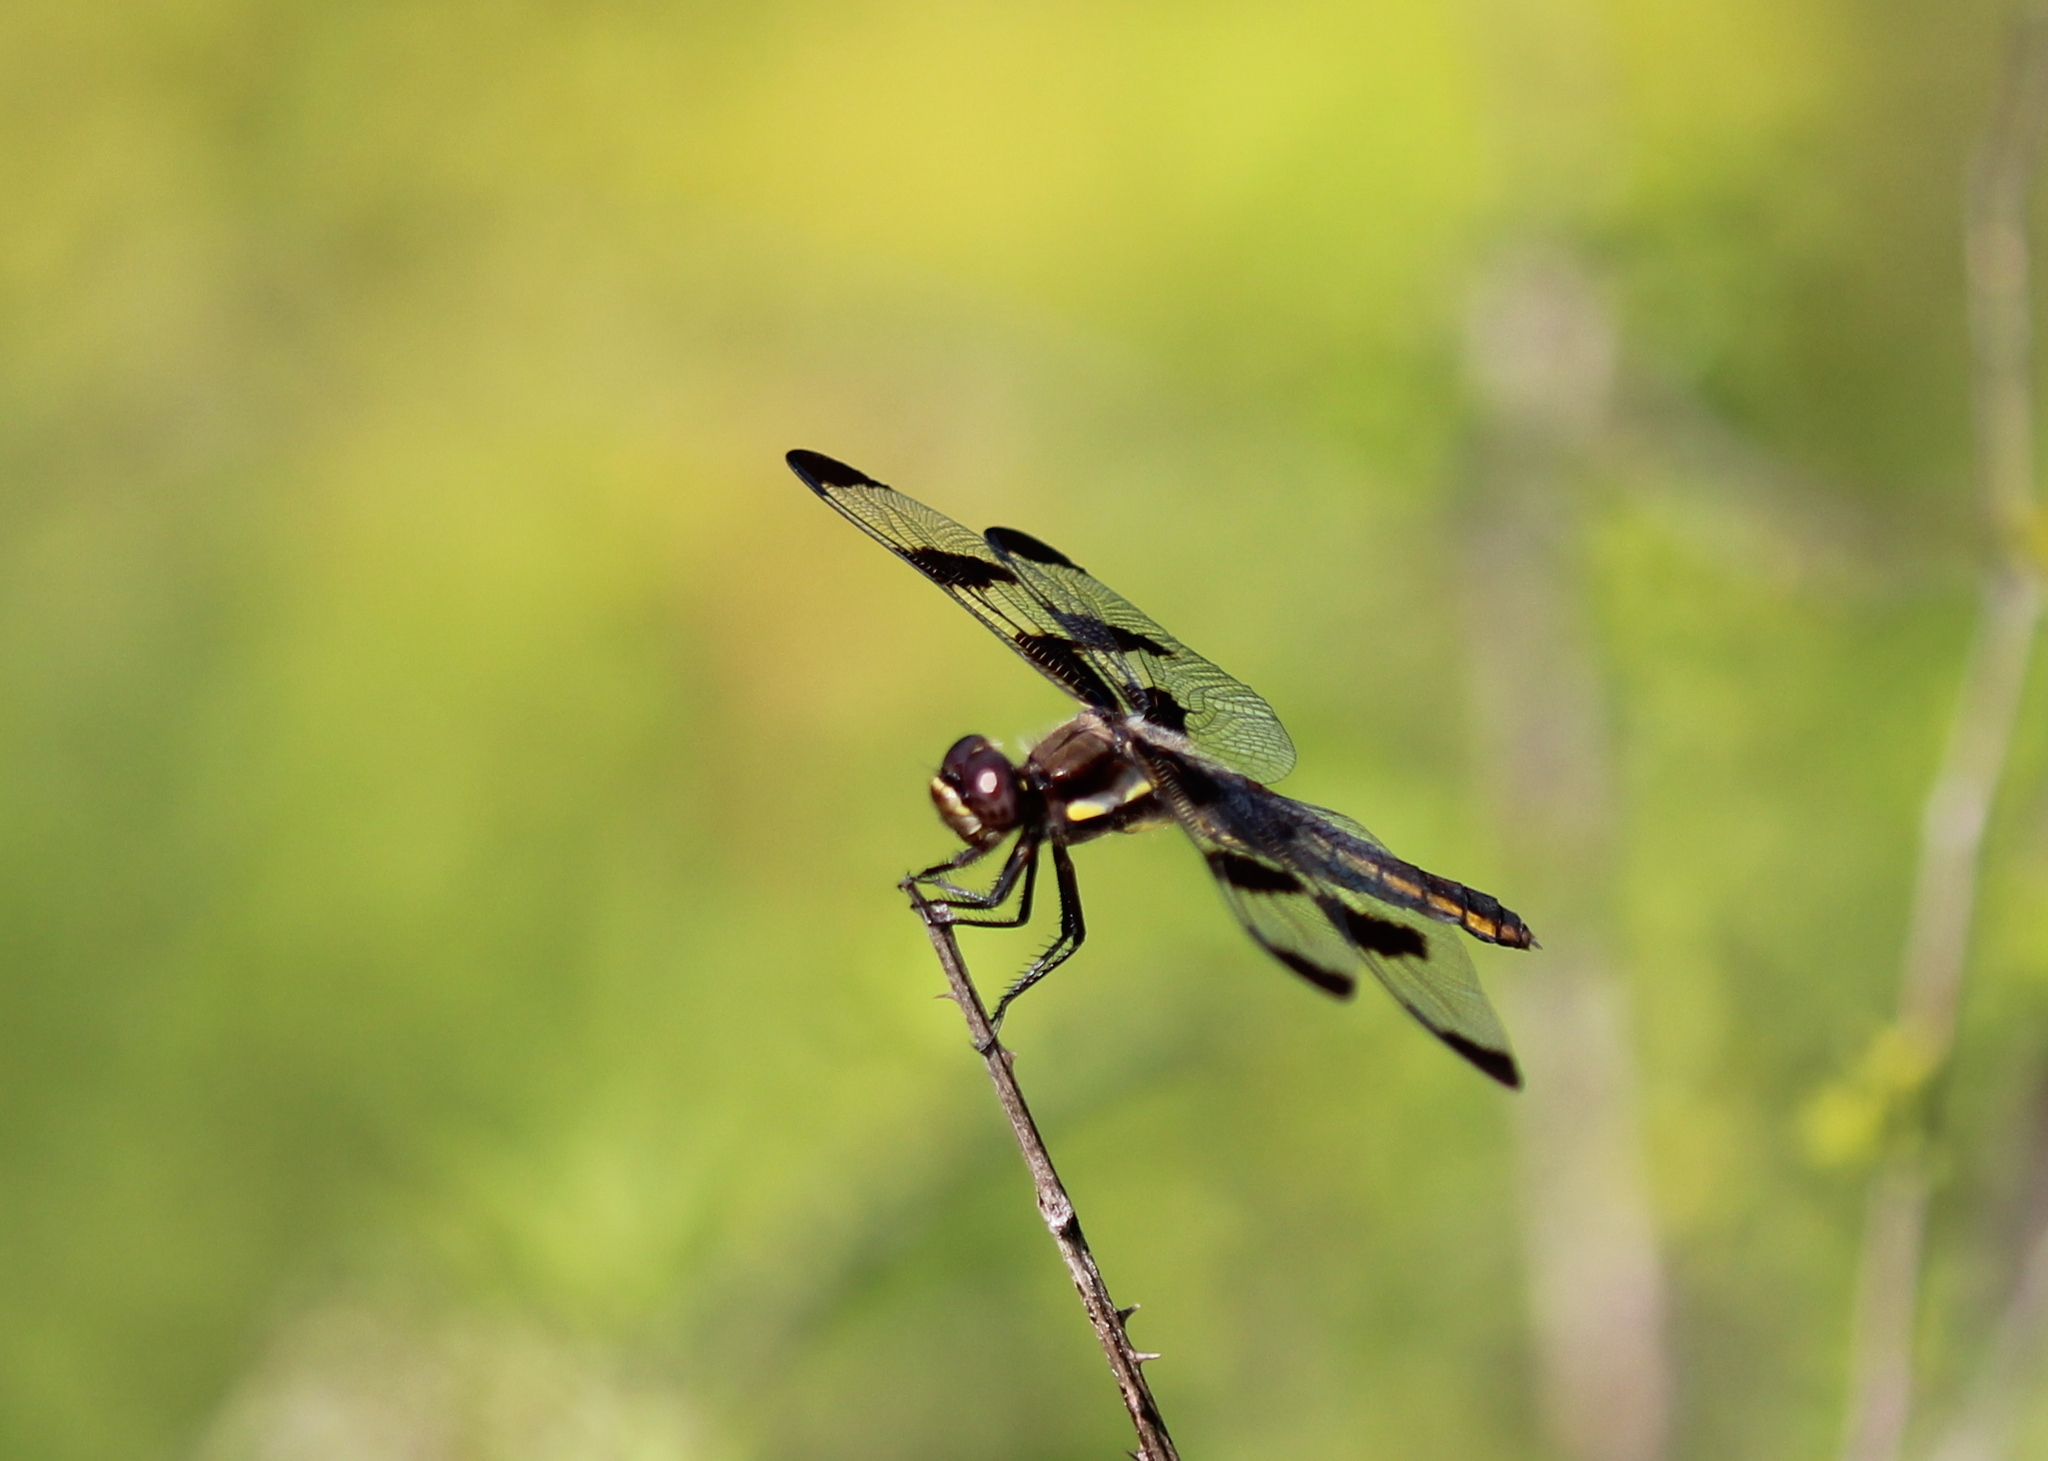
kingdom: Animalia
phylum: Arthropoda
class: Insecta
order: Odonata
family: Libellulidae
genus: Libellula
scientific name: Libellula pulchella
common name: Twelve-spotted skimmer
